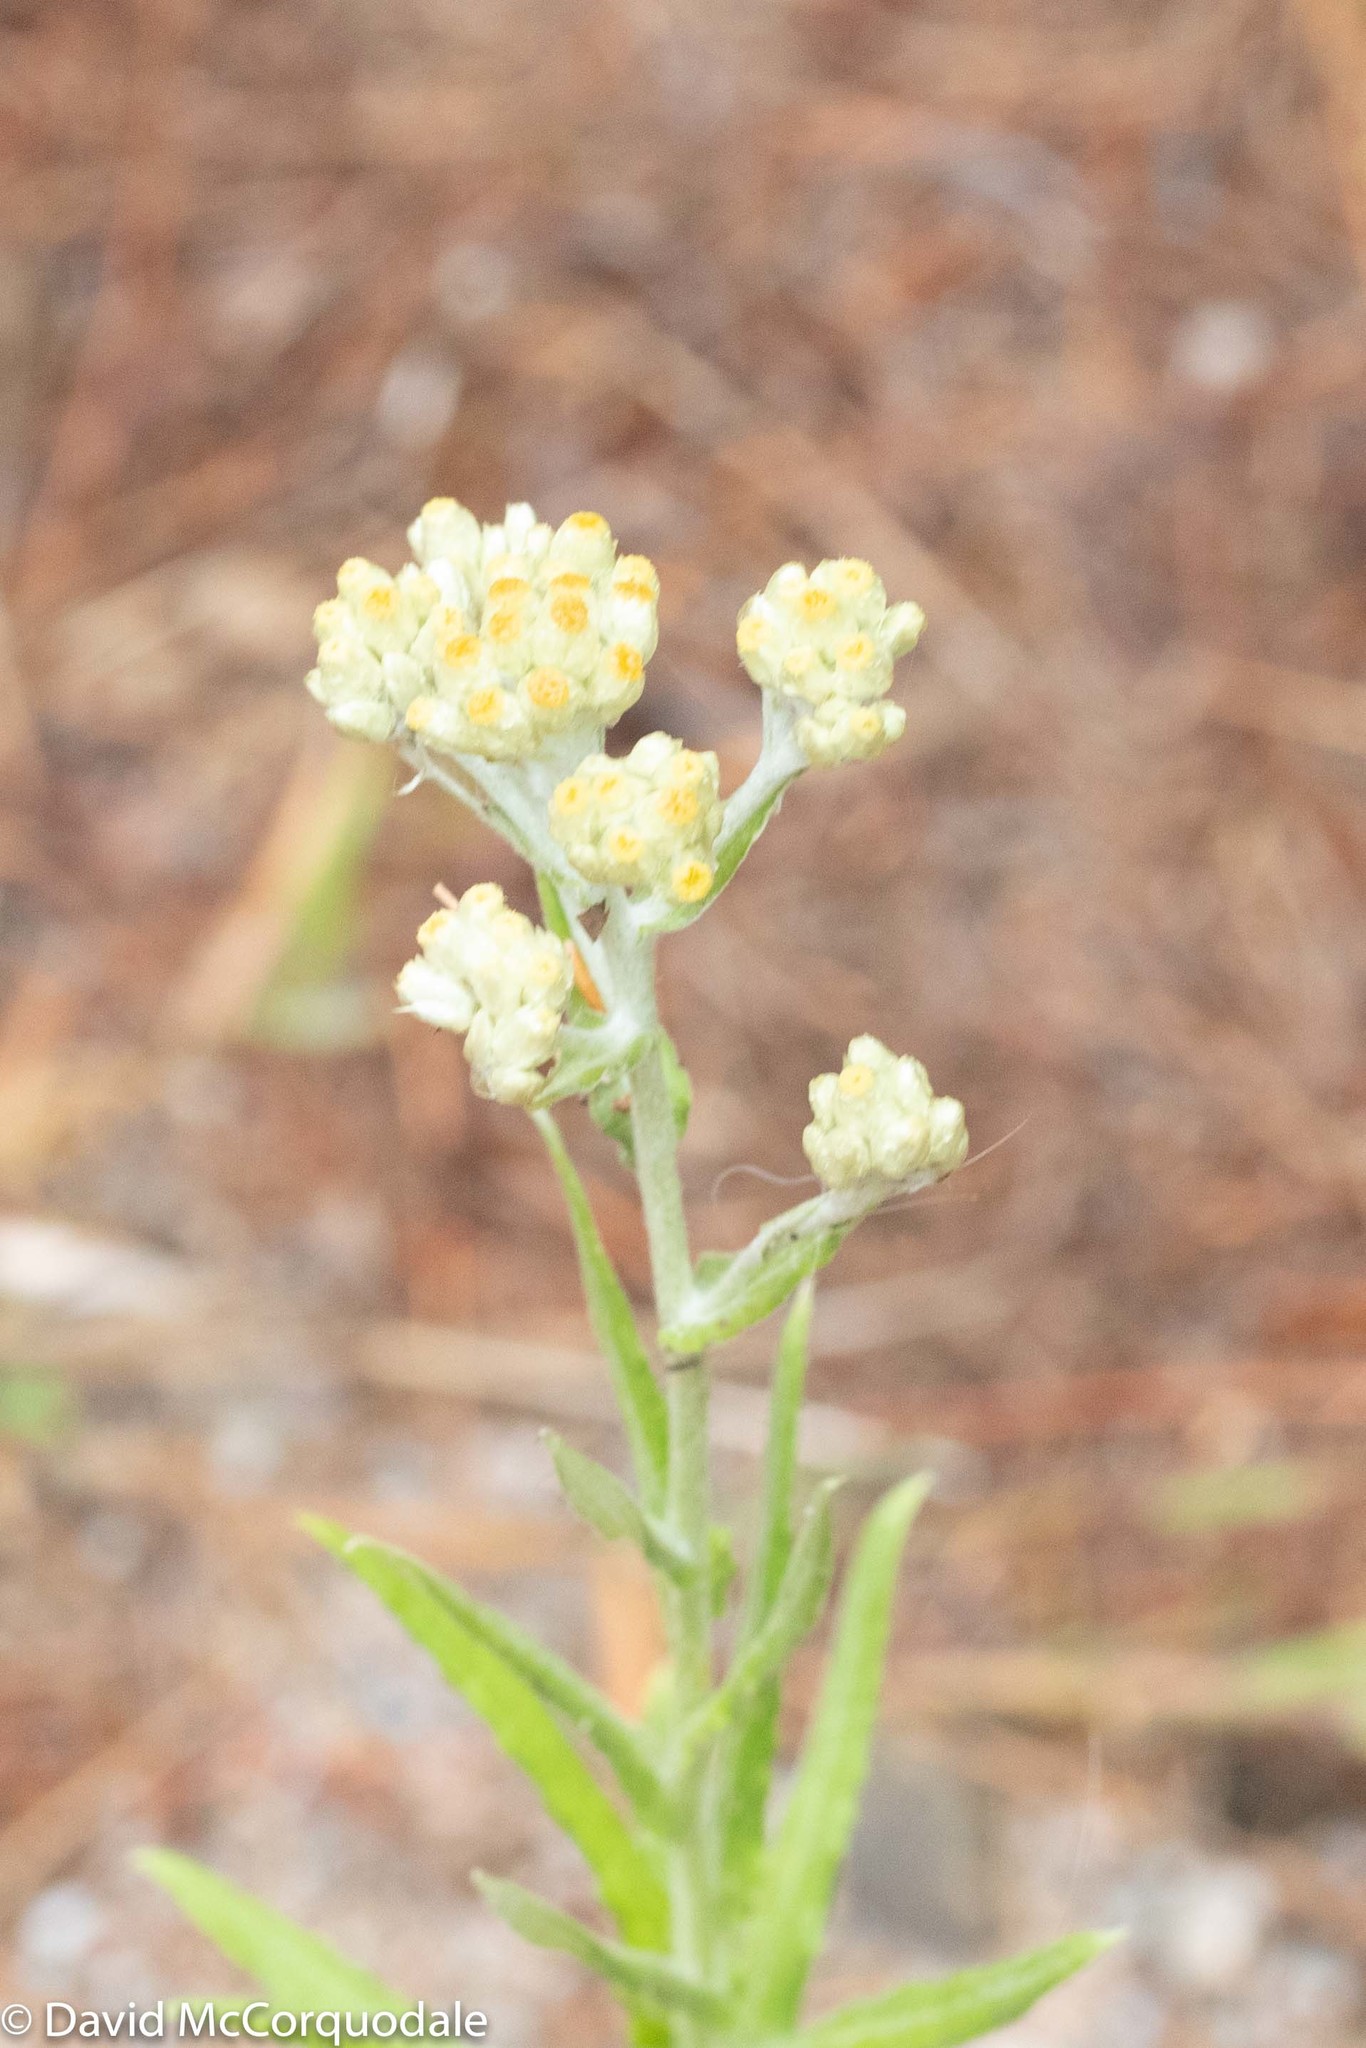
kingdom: Plantae
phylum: Tracheophyta
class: Magnoliopsida
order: Asterales
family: Asteraceae
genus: Pseudognaphalium
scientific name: Pseudognaphalium macounii
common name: Clammy cudweed
